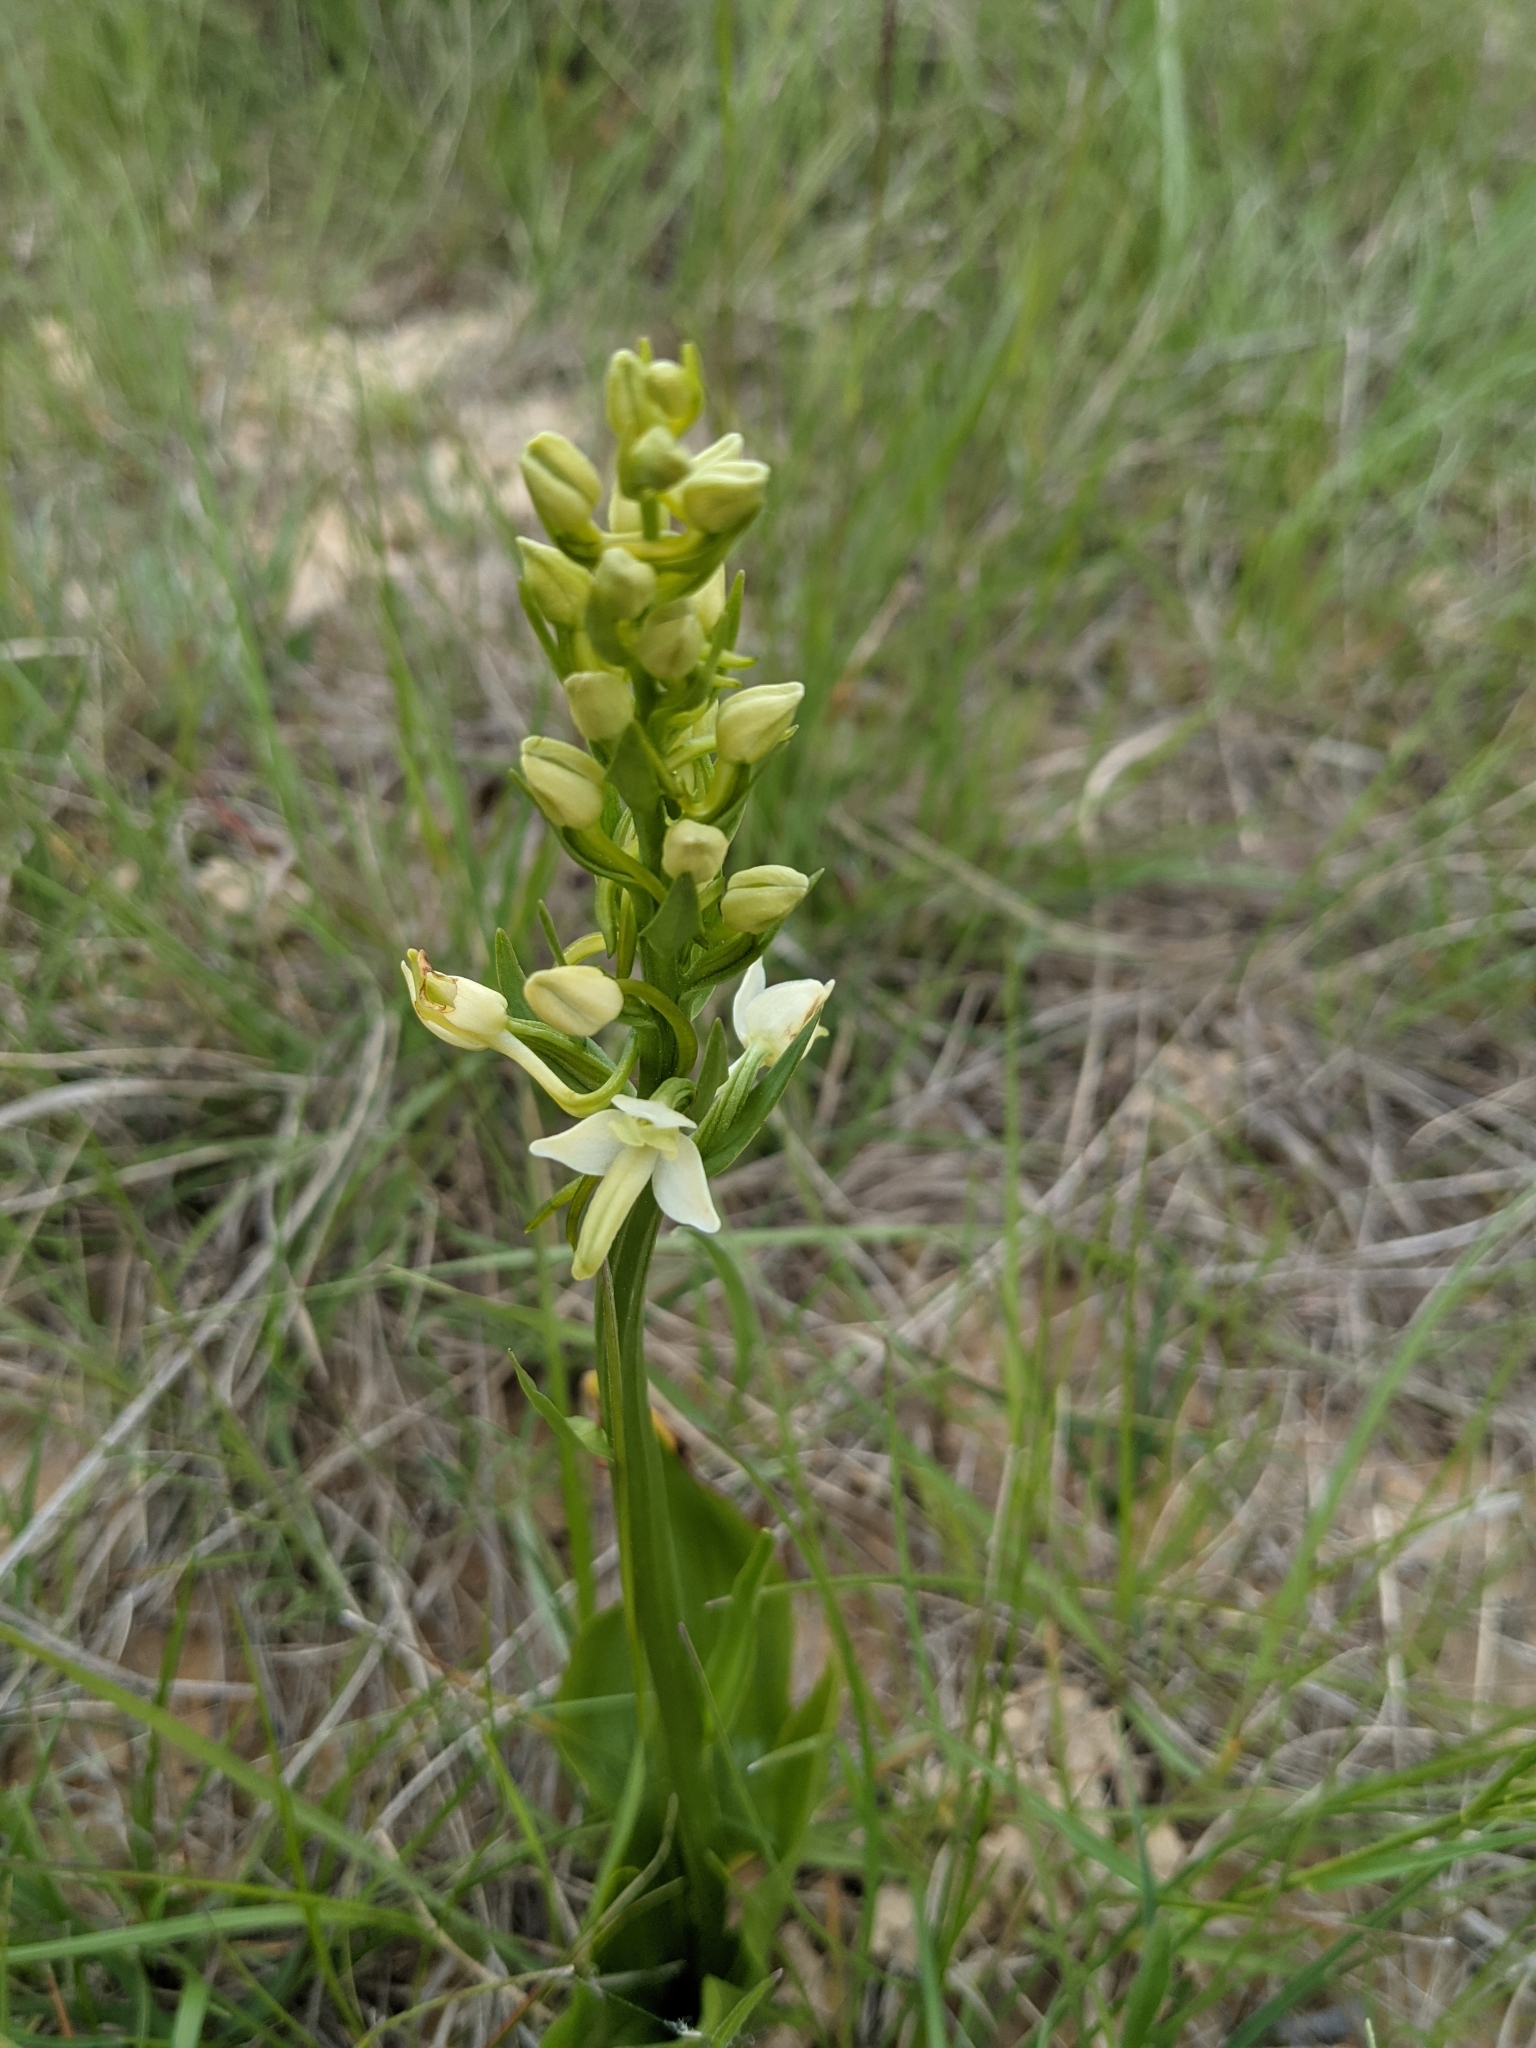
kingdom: Plantae
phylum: Tracheophyta
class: Liliopsida
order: Asparagales
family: Orchidaceae
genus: Platanthera
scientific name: Platanthera bifolia
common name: Lesser butterfly-orchid
